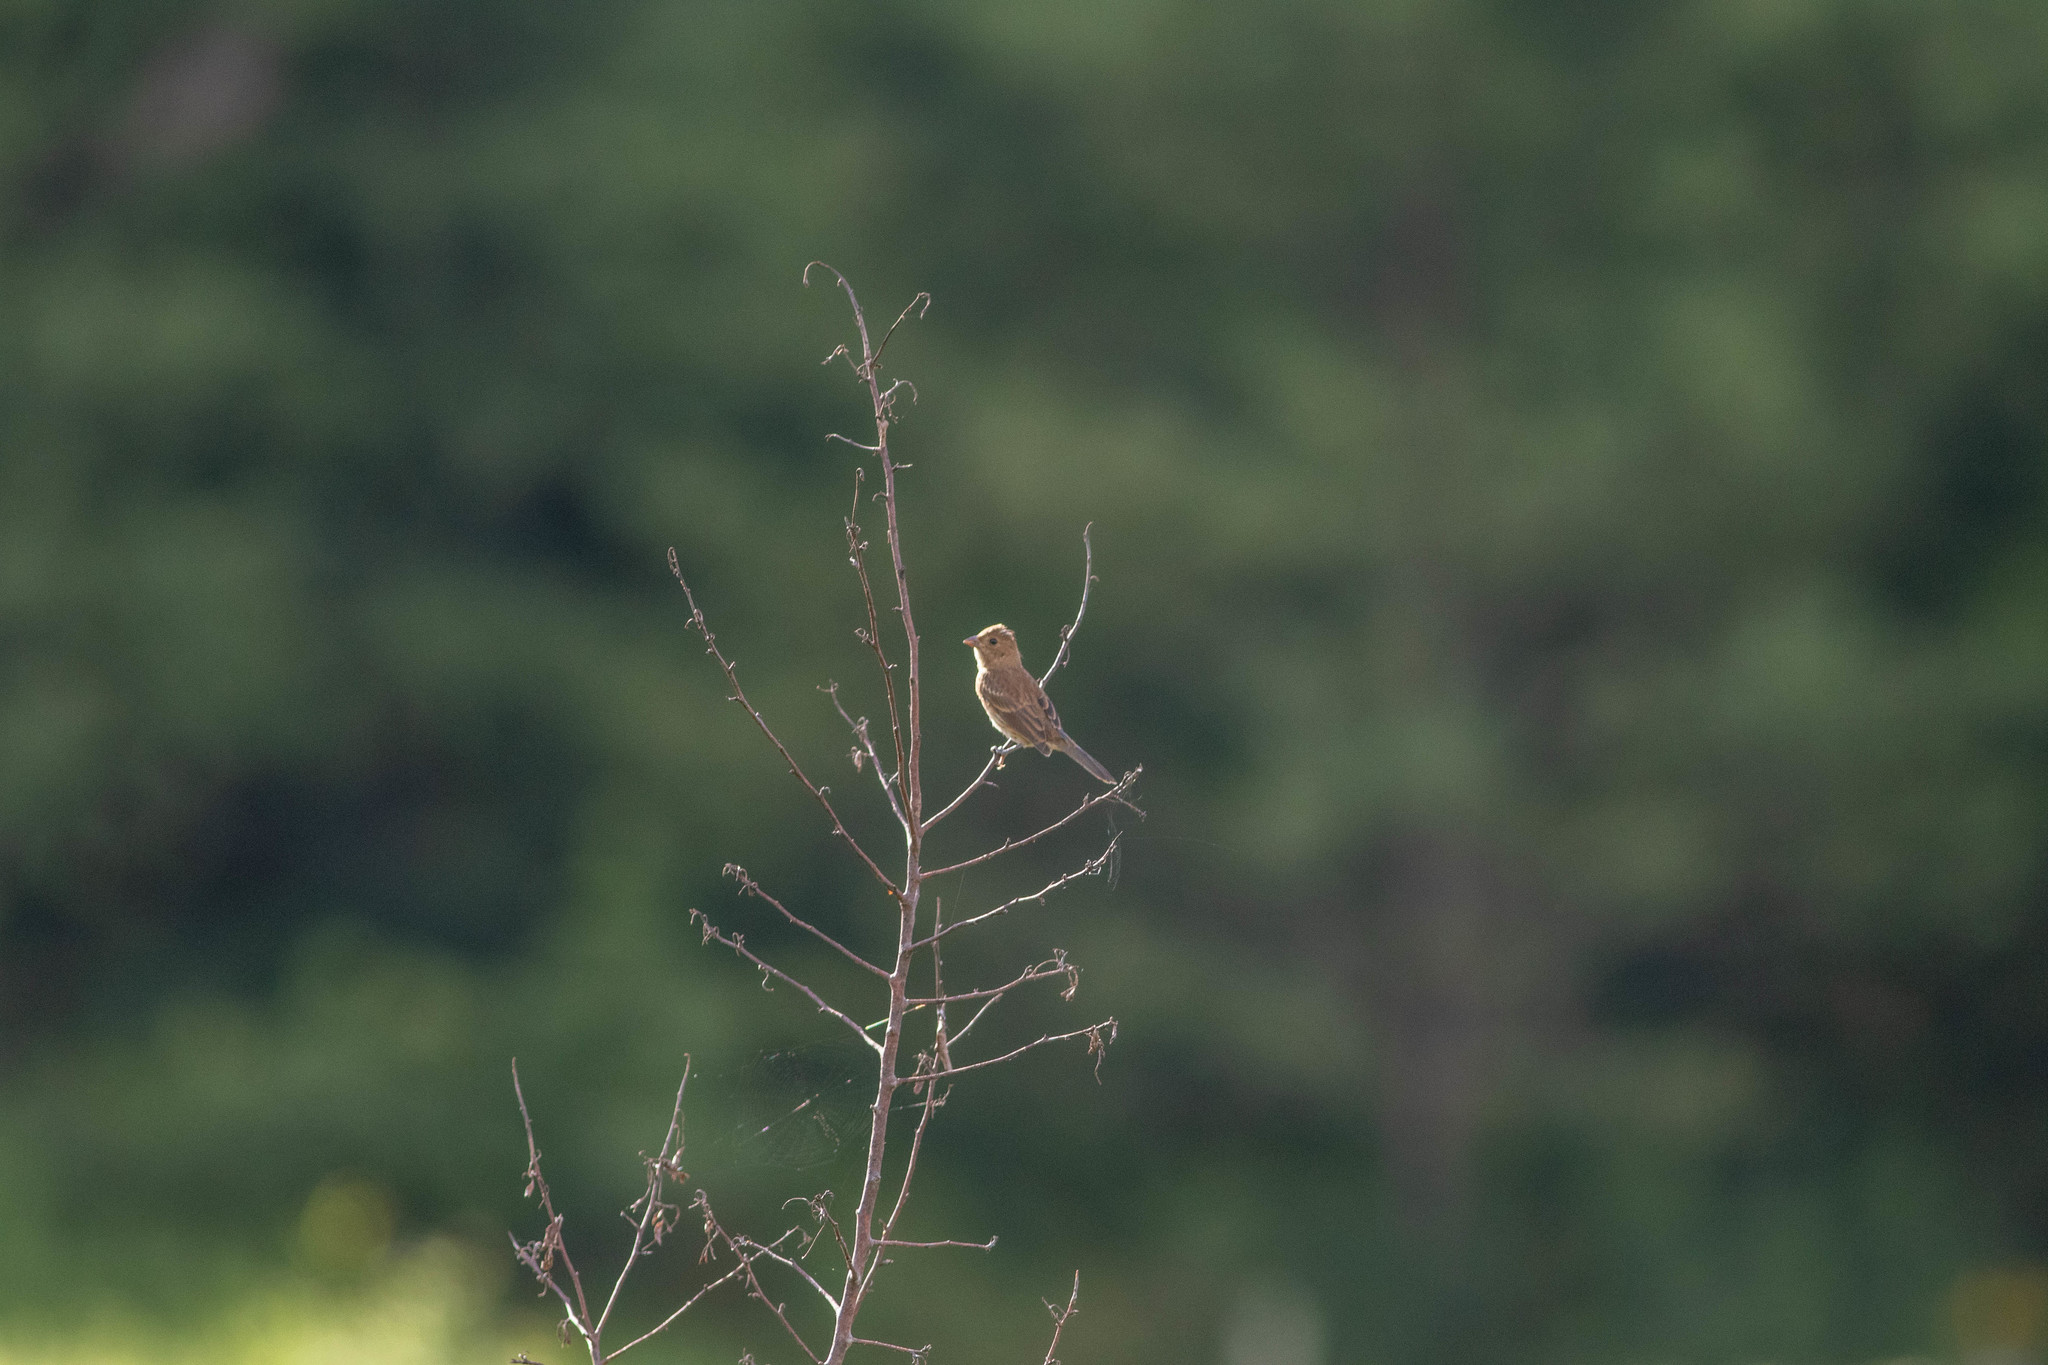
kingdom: Animalia
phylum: Chordata
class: Aves
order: Passeriformes
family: Cardinalidae
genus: Passerina
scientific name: Passerina cyanea
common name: Indigo bunting
